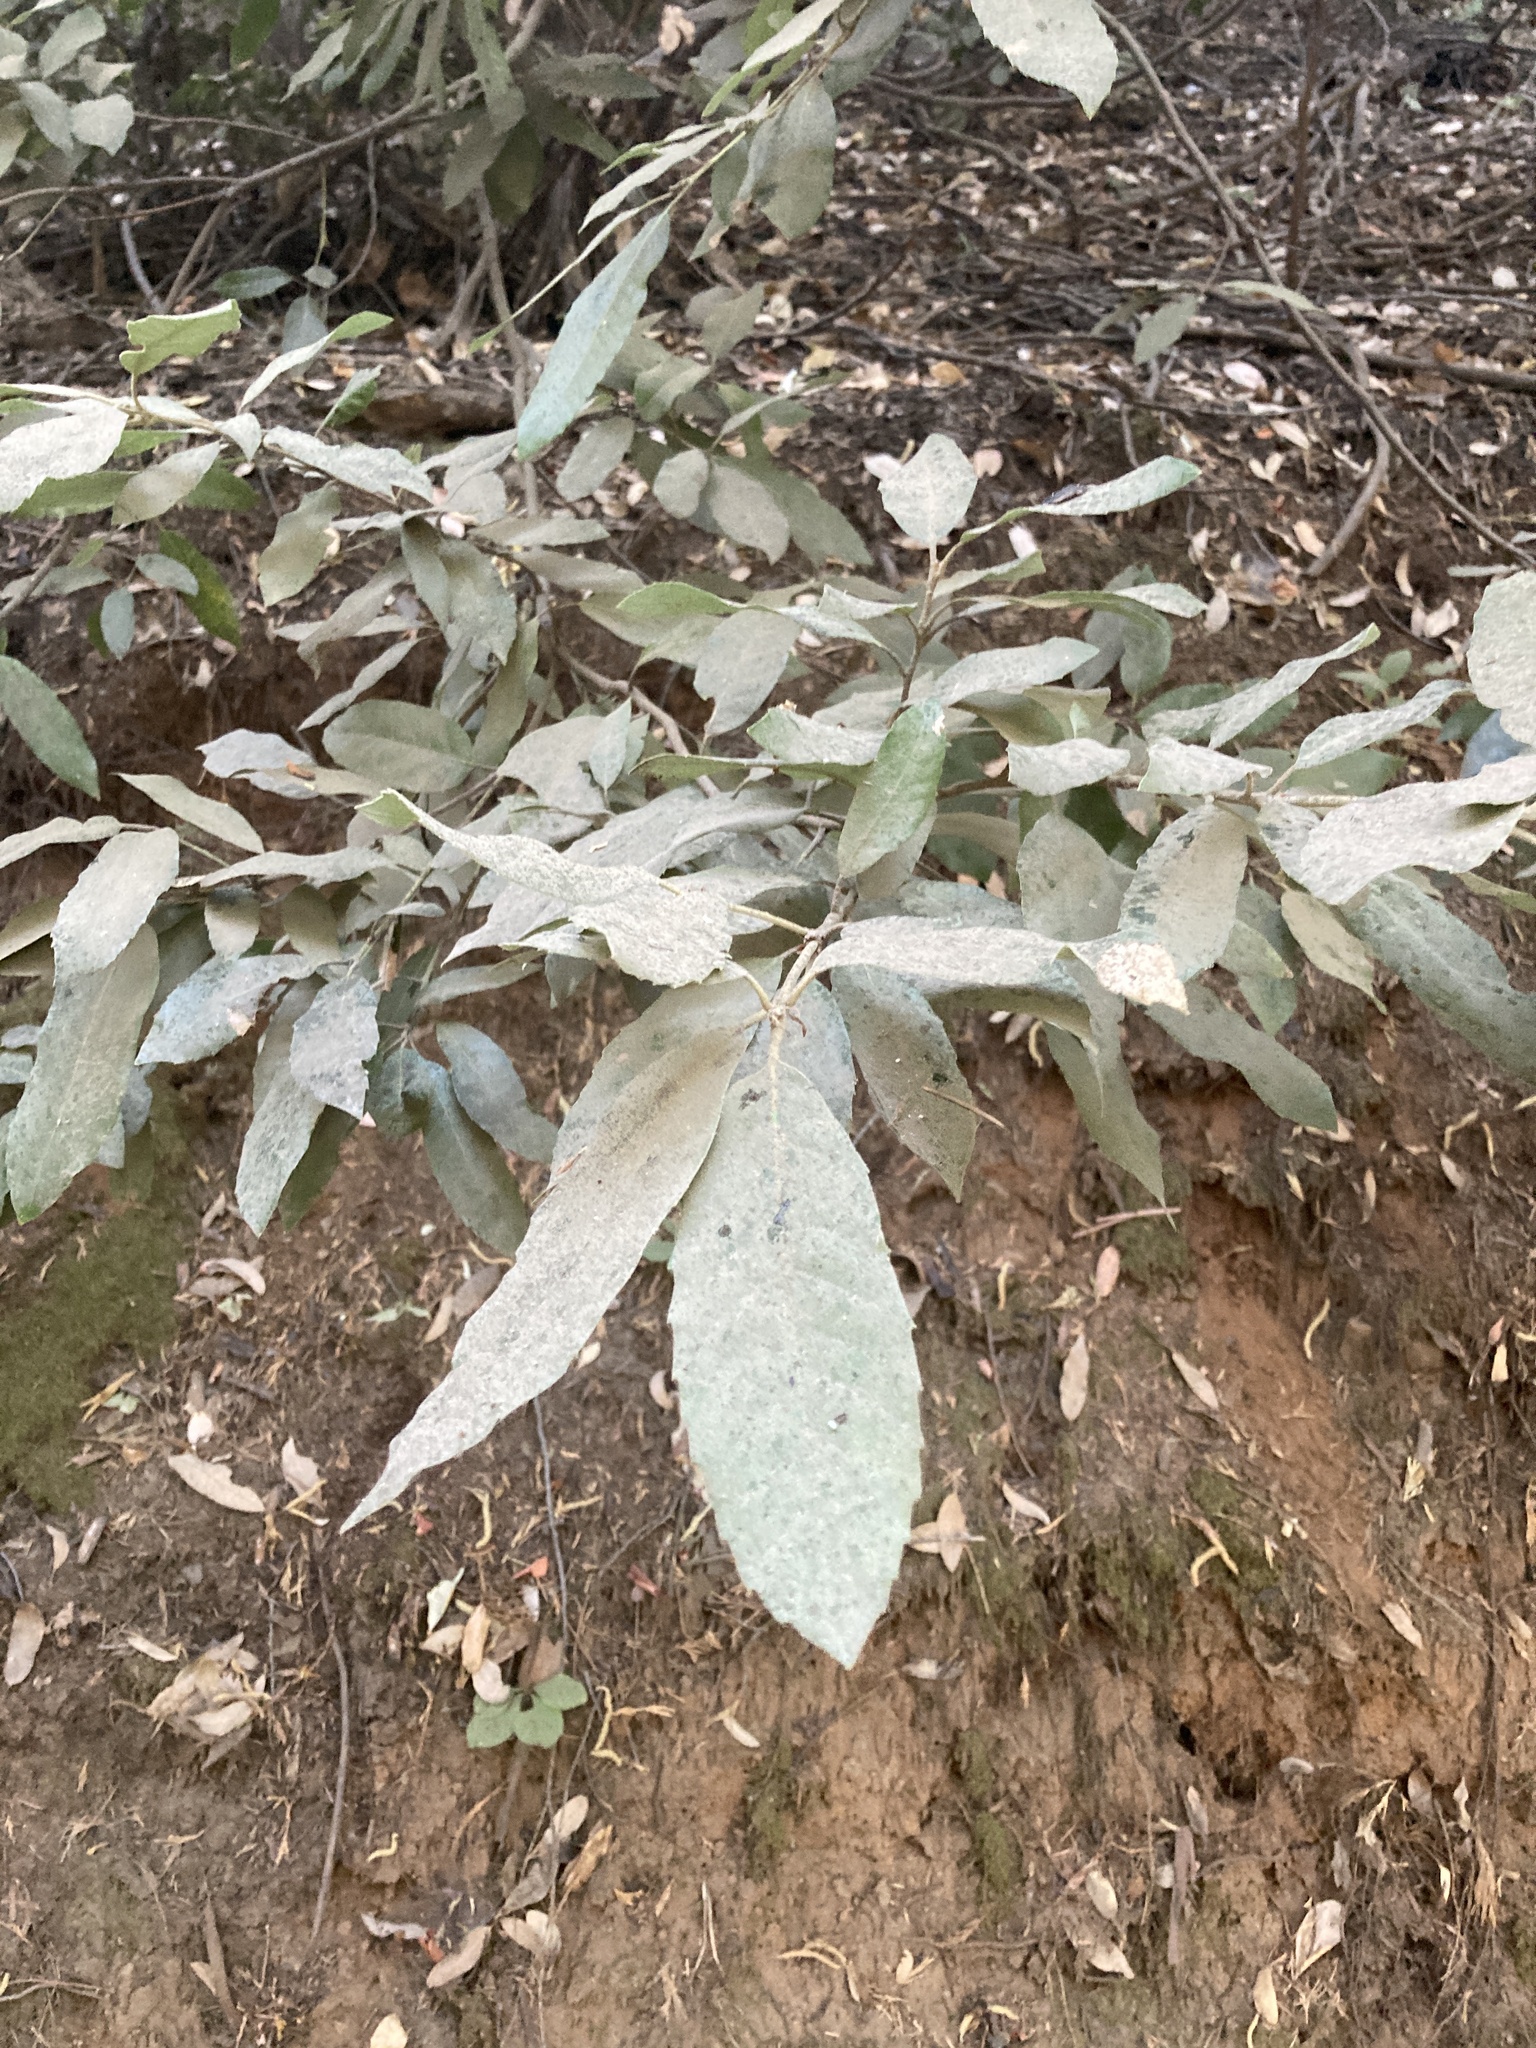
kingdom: Plantae
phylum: Tracheophyta
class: Magnoliopsida
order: Fagales
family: Fagaceae
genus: Notholithocarpus
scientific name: Notholithocarpus densiflorus
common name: Tan bark oak
